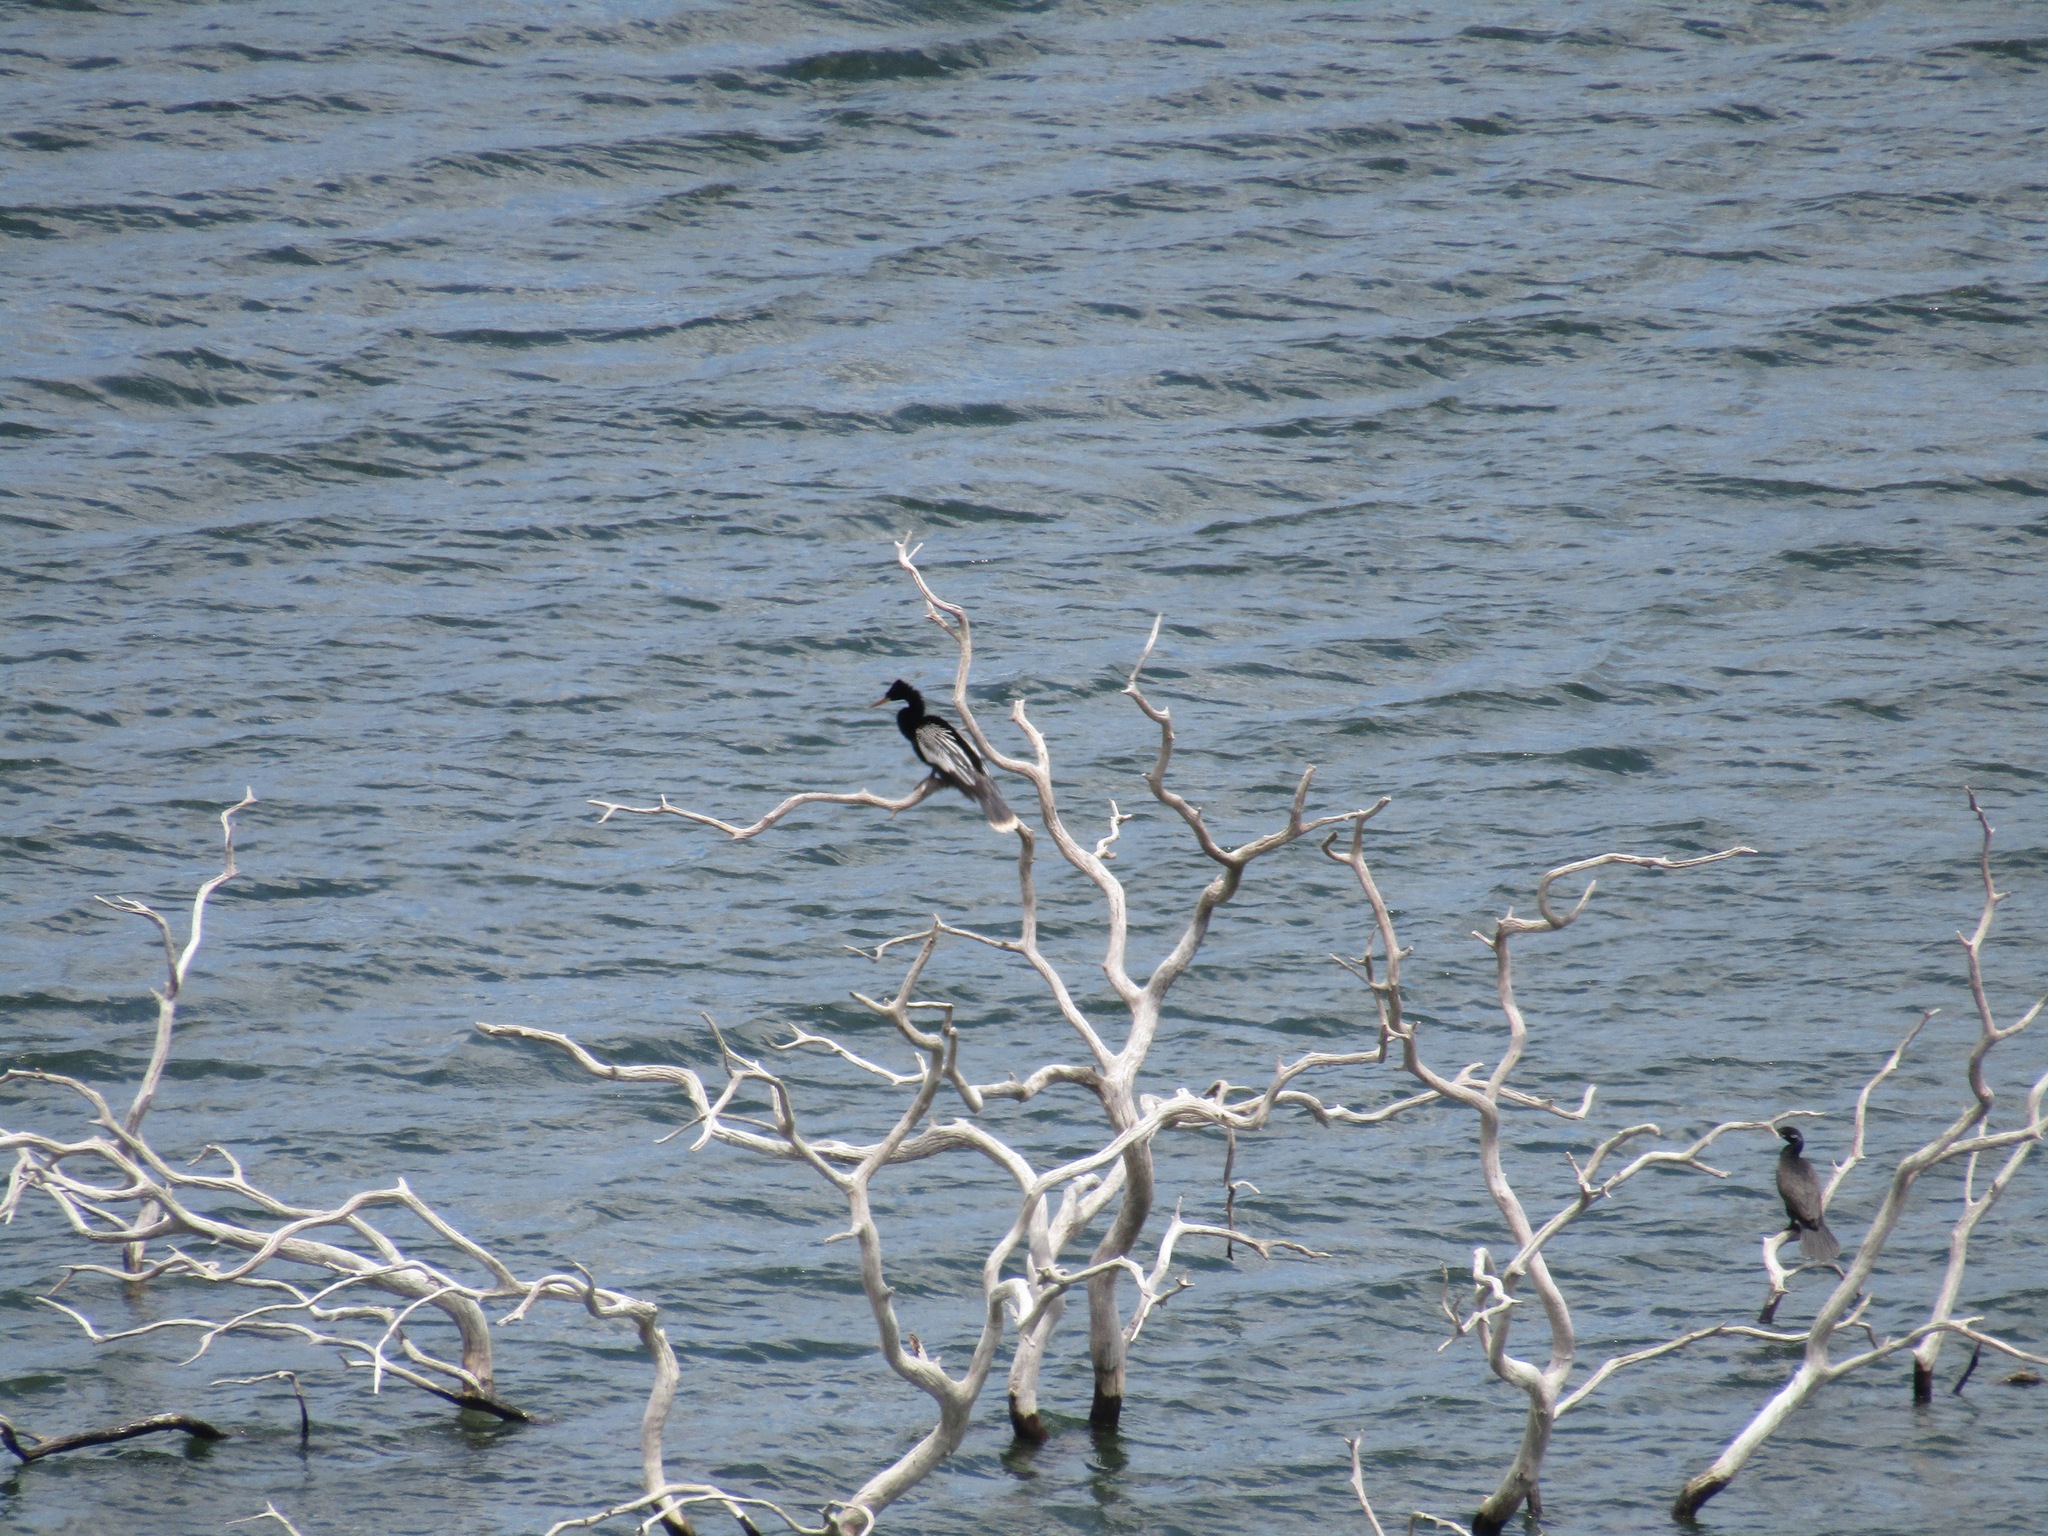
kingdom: Animalia
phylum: Chordata
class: Aves
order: Suliformes
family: Anhingidae
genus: Anhinga
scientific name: Anhinga anhinga
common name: Anhinga
